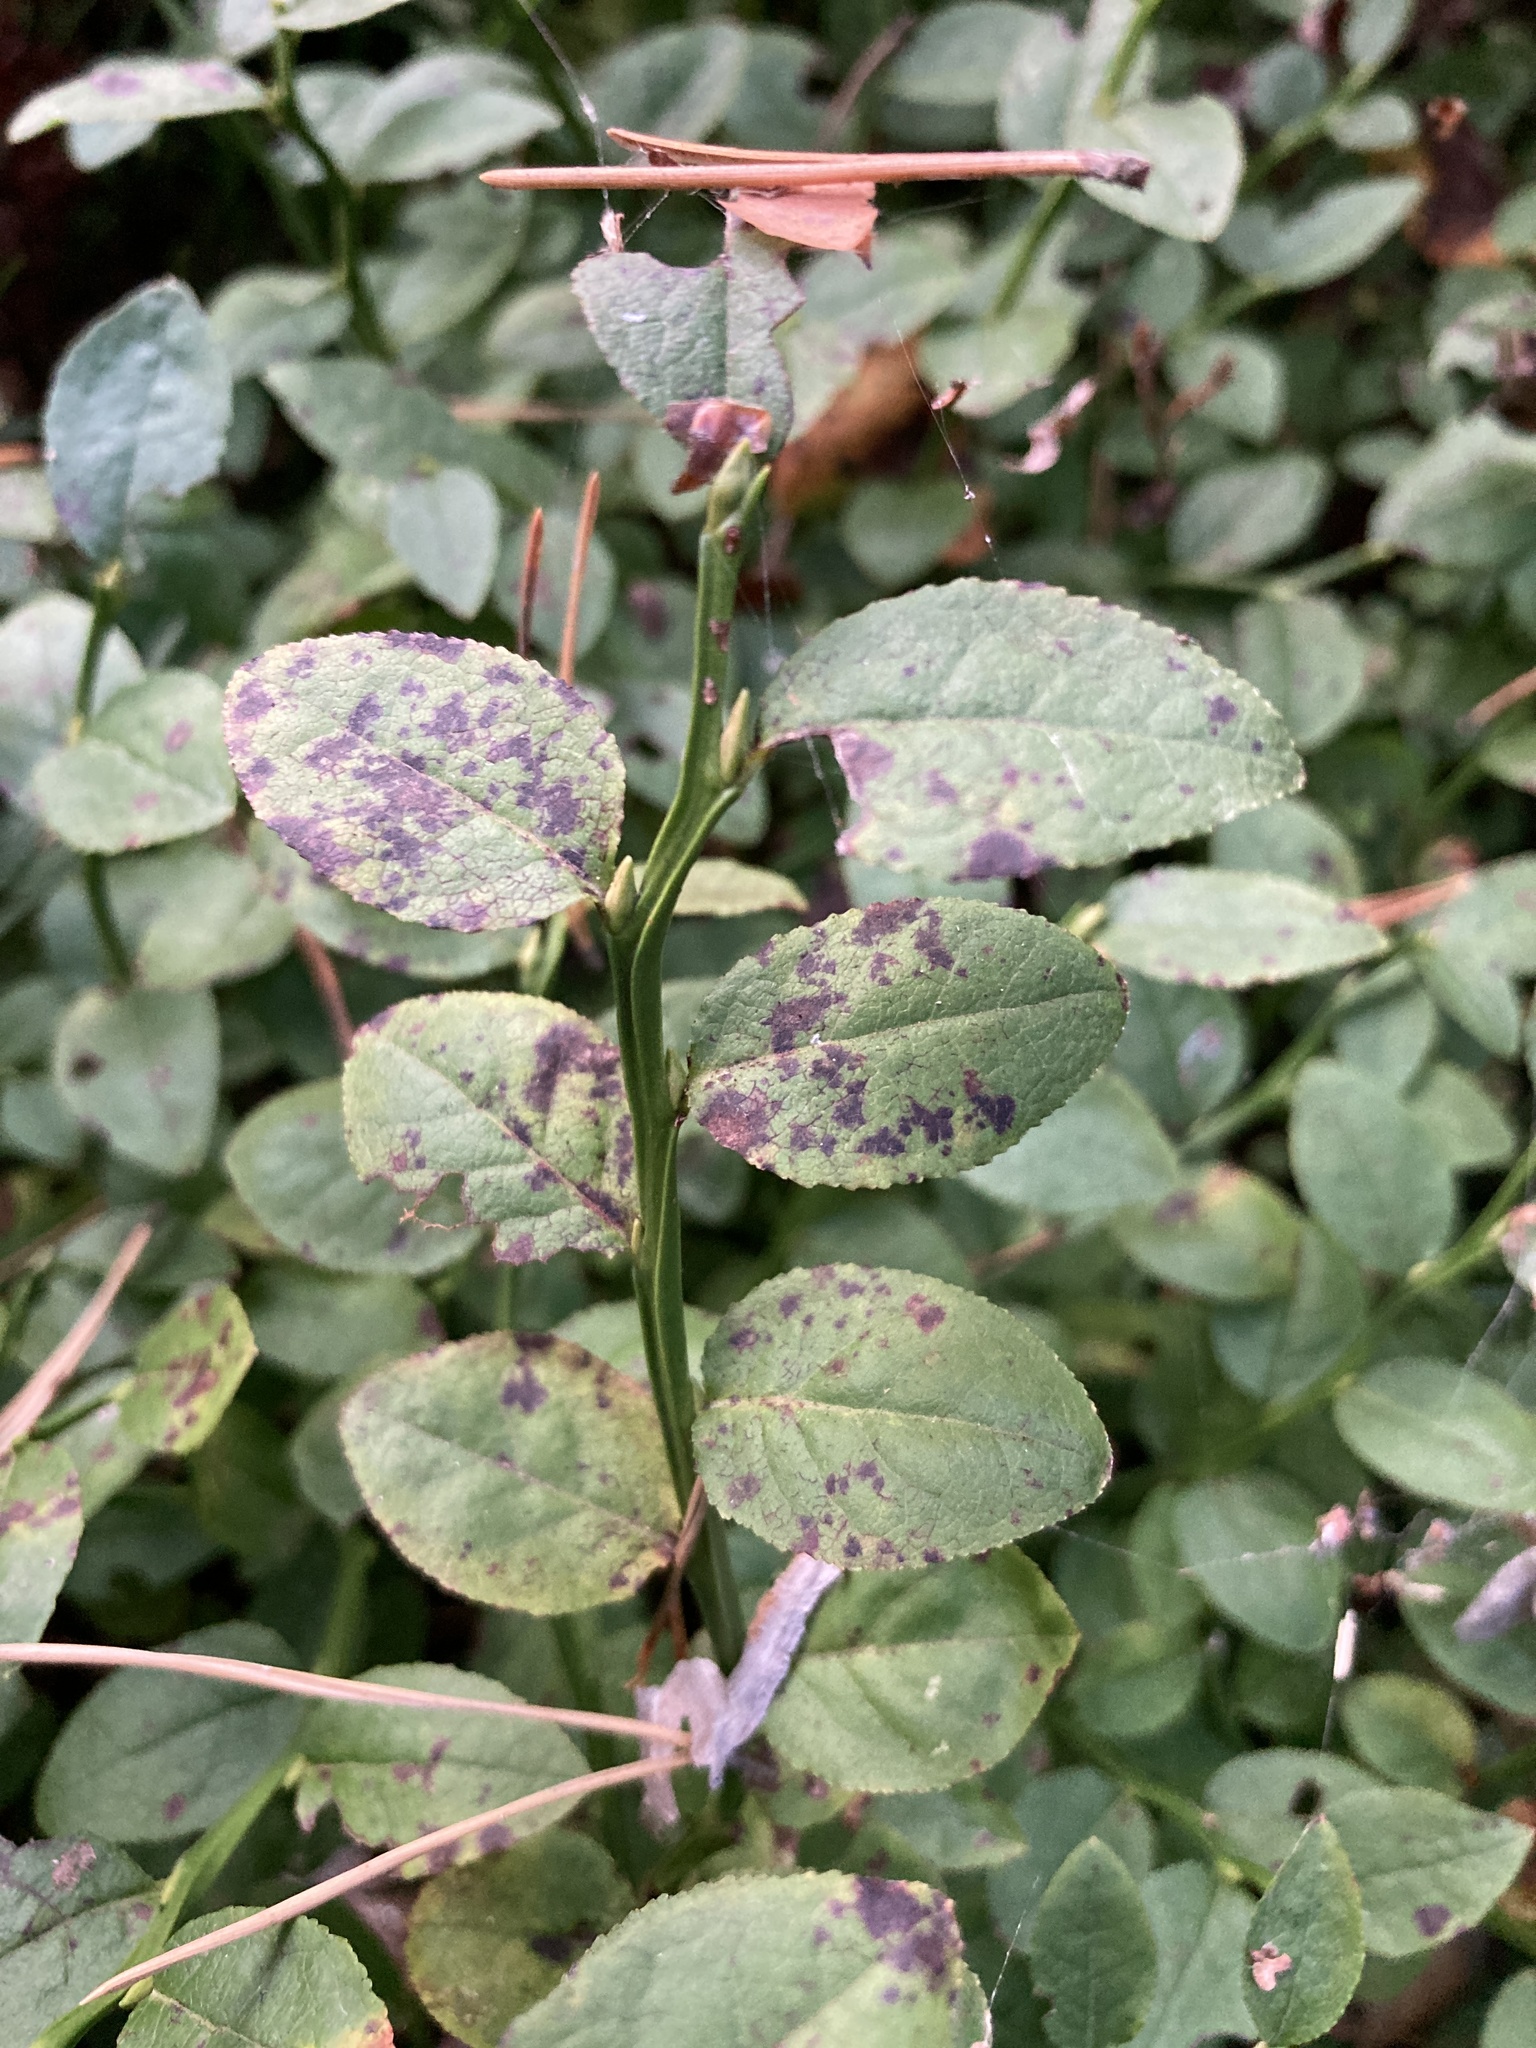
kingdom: Plantae
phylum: Tracheophyta
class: Magnoliopsida
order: Ericales
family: Ericaceae
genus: Vaccinium
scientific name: Vaccinium myrtillus
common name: Bilberry
